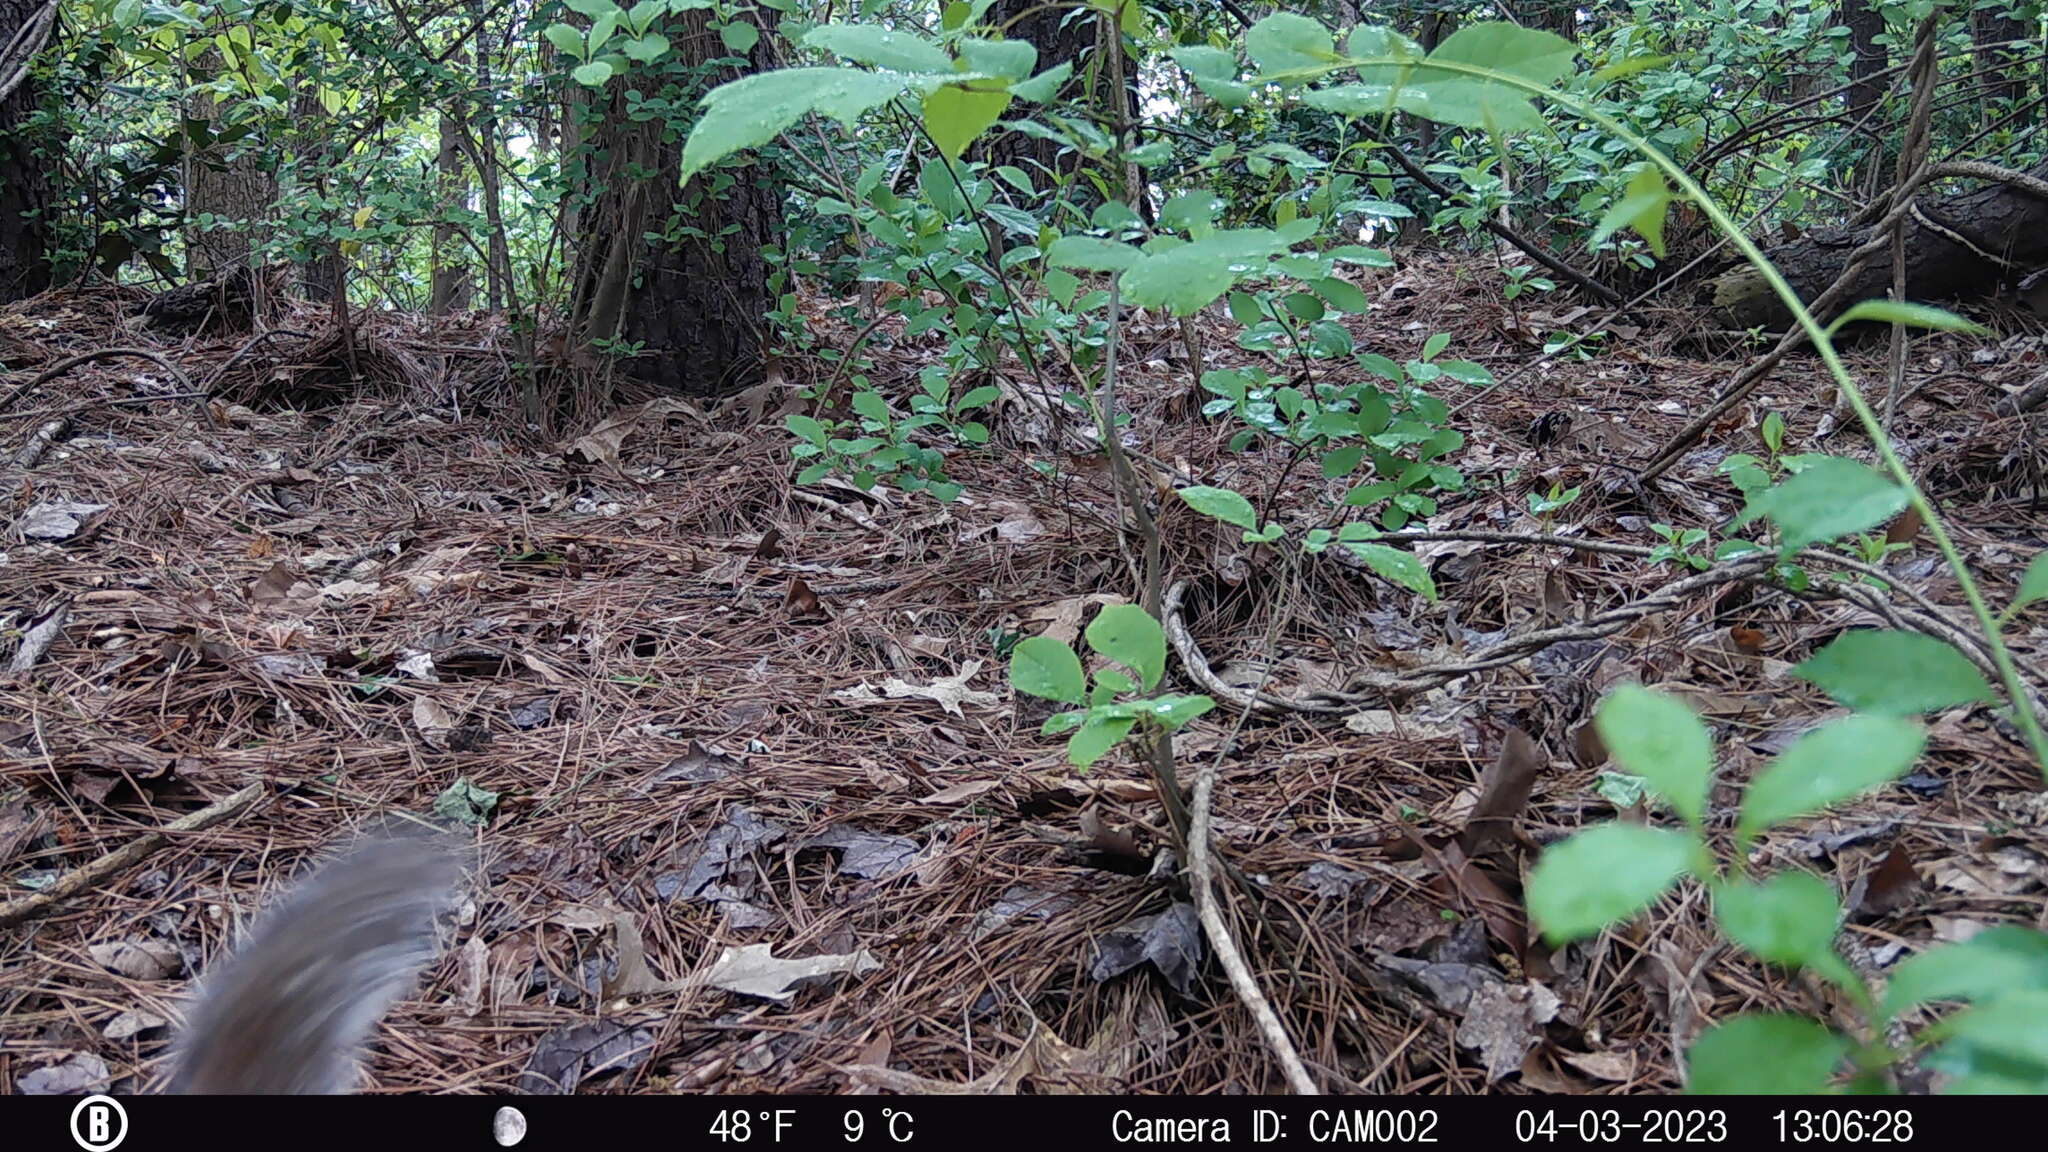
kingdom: Animalia
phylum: Chordata
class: Mammalia
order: Rodentia
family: Sciuridae
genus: Sciurus
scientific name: Sciurus carolinensis
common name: Eastern gray squirrel
